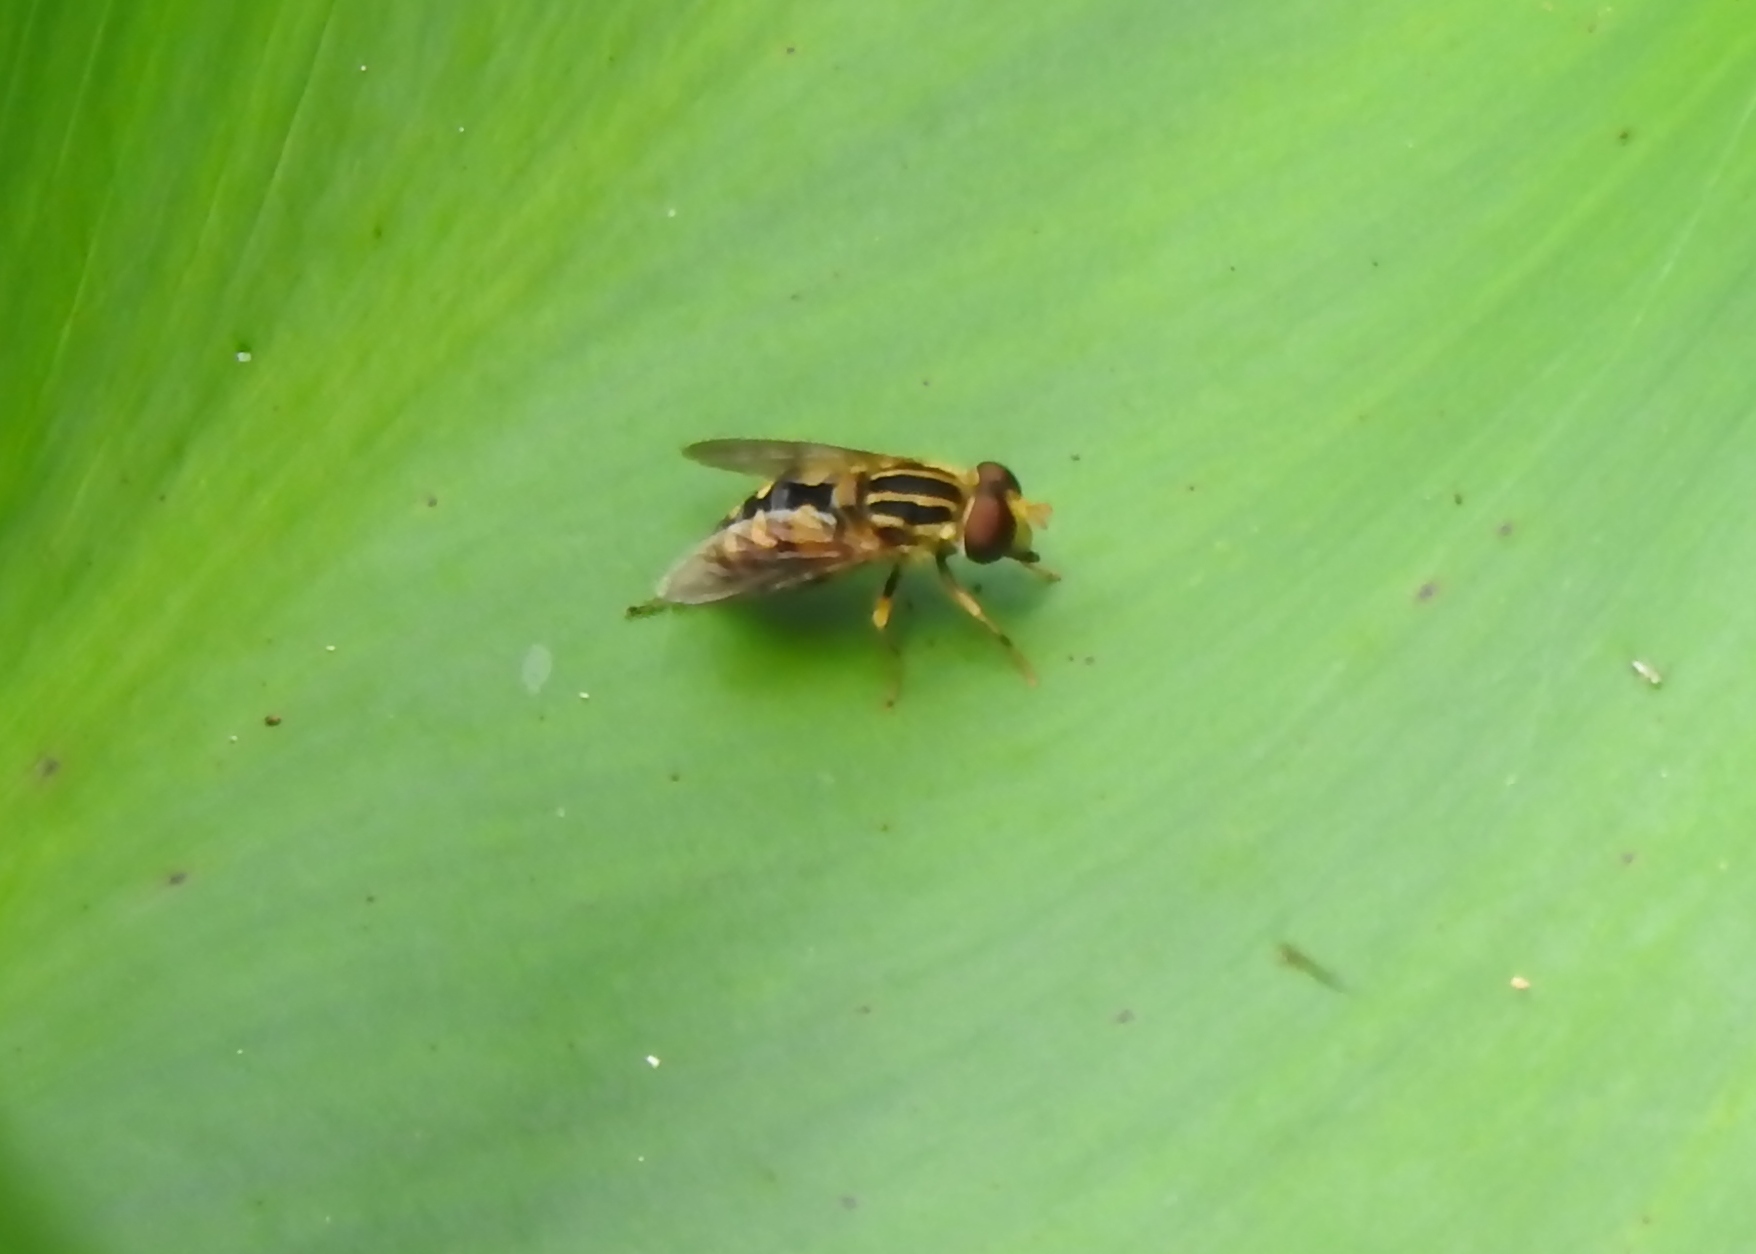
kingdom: Animalia
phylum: Arthropoda
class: Insecta
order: Diptera
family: Syrphidae
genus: Parhelophilus
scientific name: Parhelophilus flavifacies
